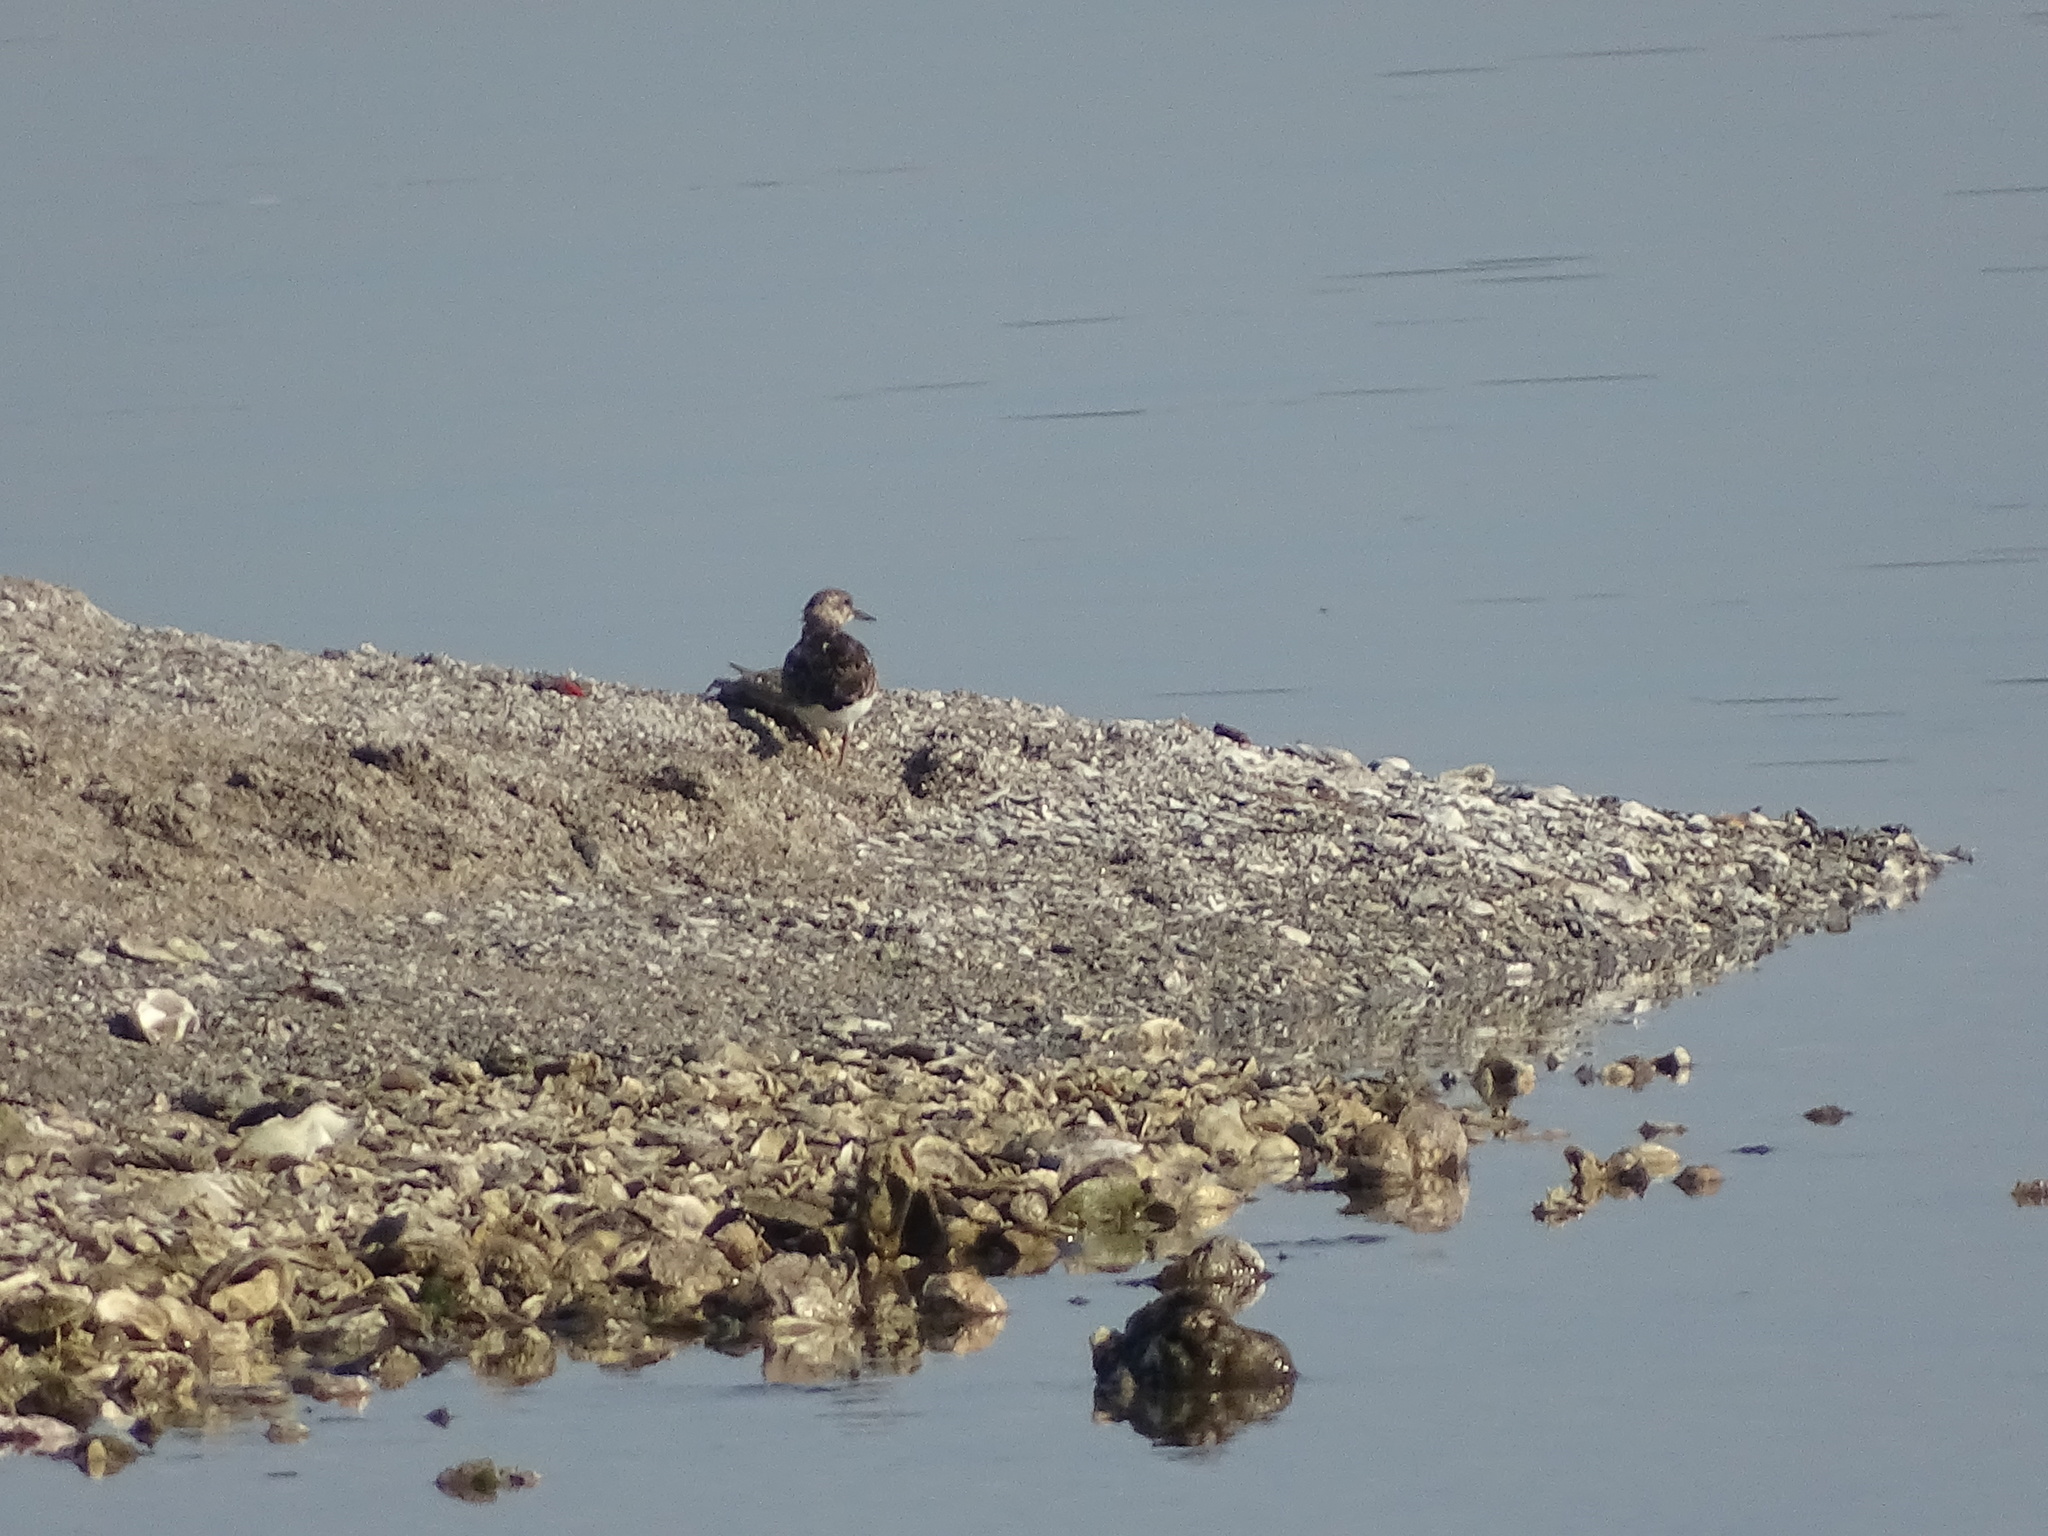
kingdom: Animalia
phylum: Chordata
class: Aves
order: Charadriiformes
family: Scolopacidae
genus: Arenaria
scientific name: Arenaria interpres
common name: Ruddy turnstone
